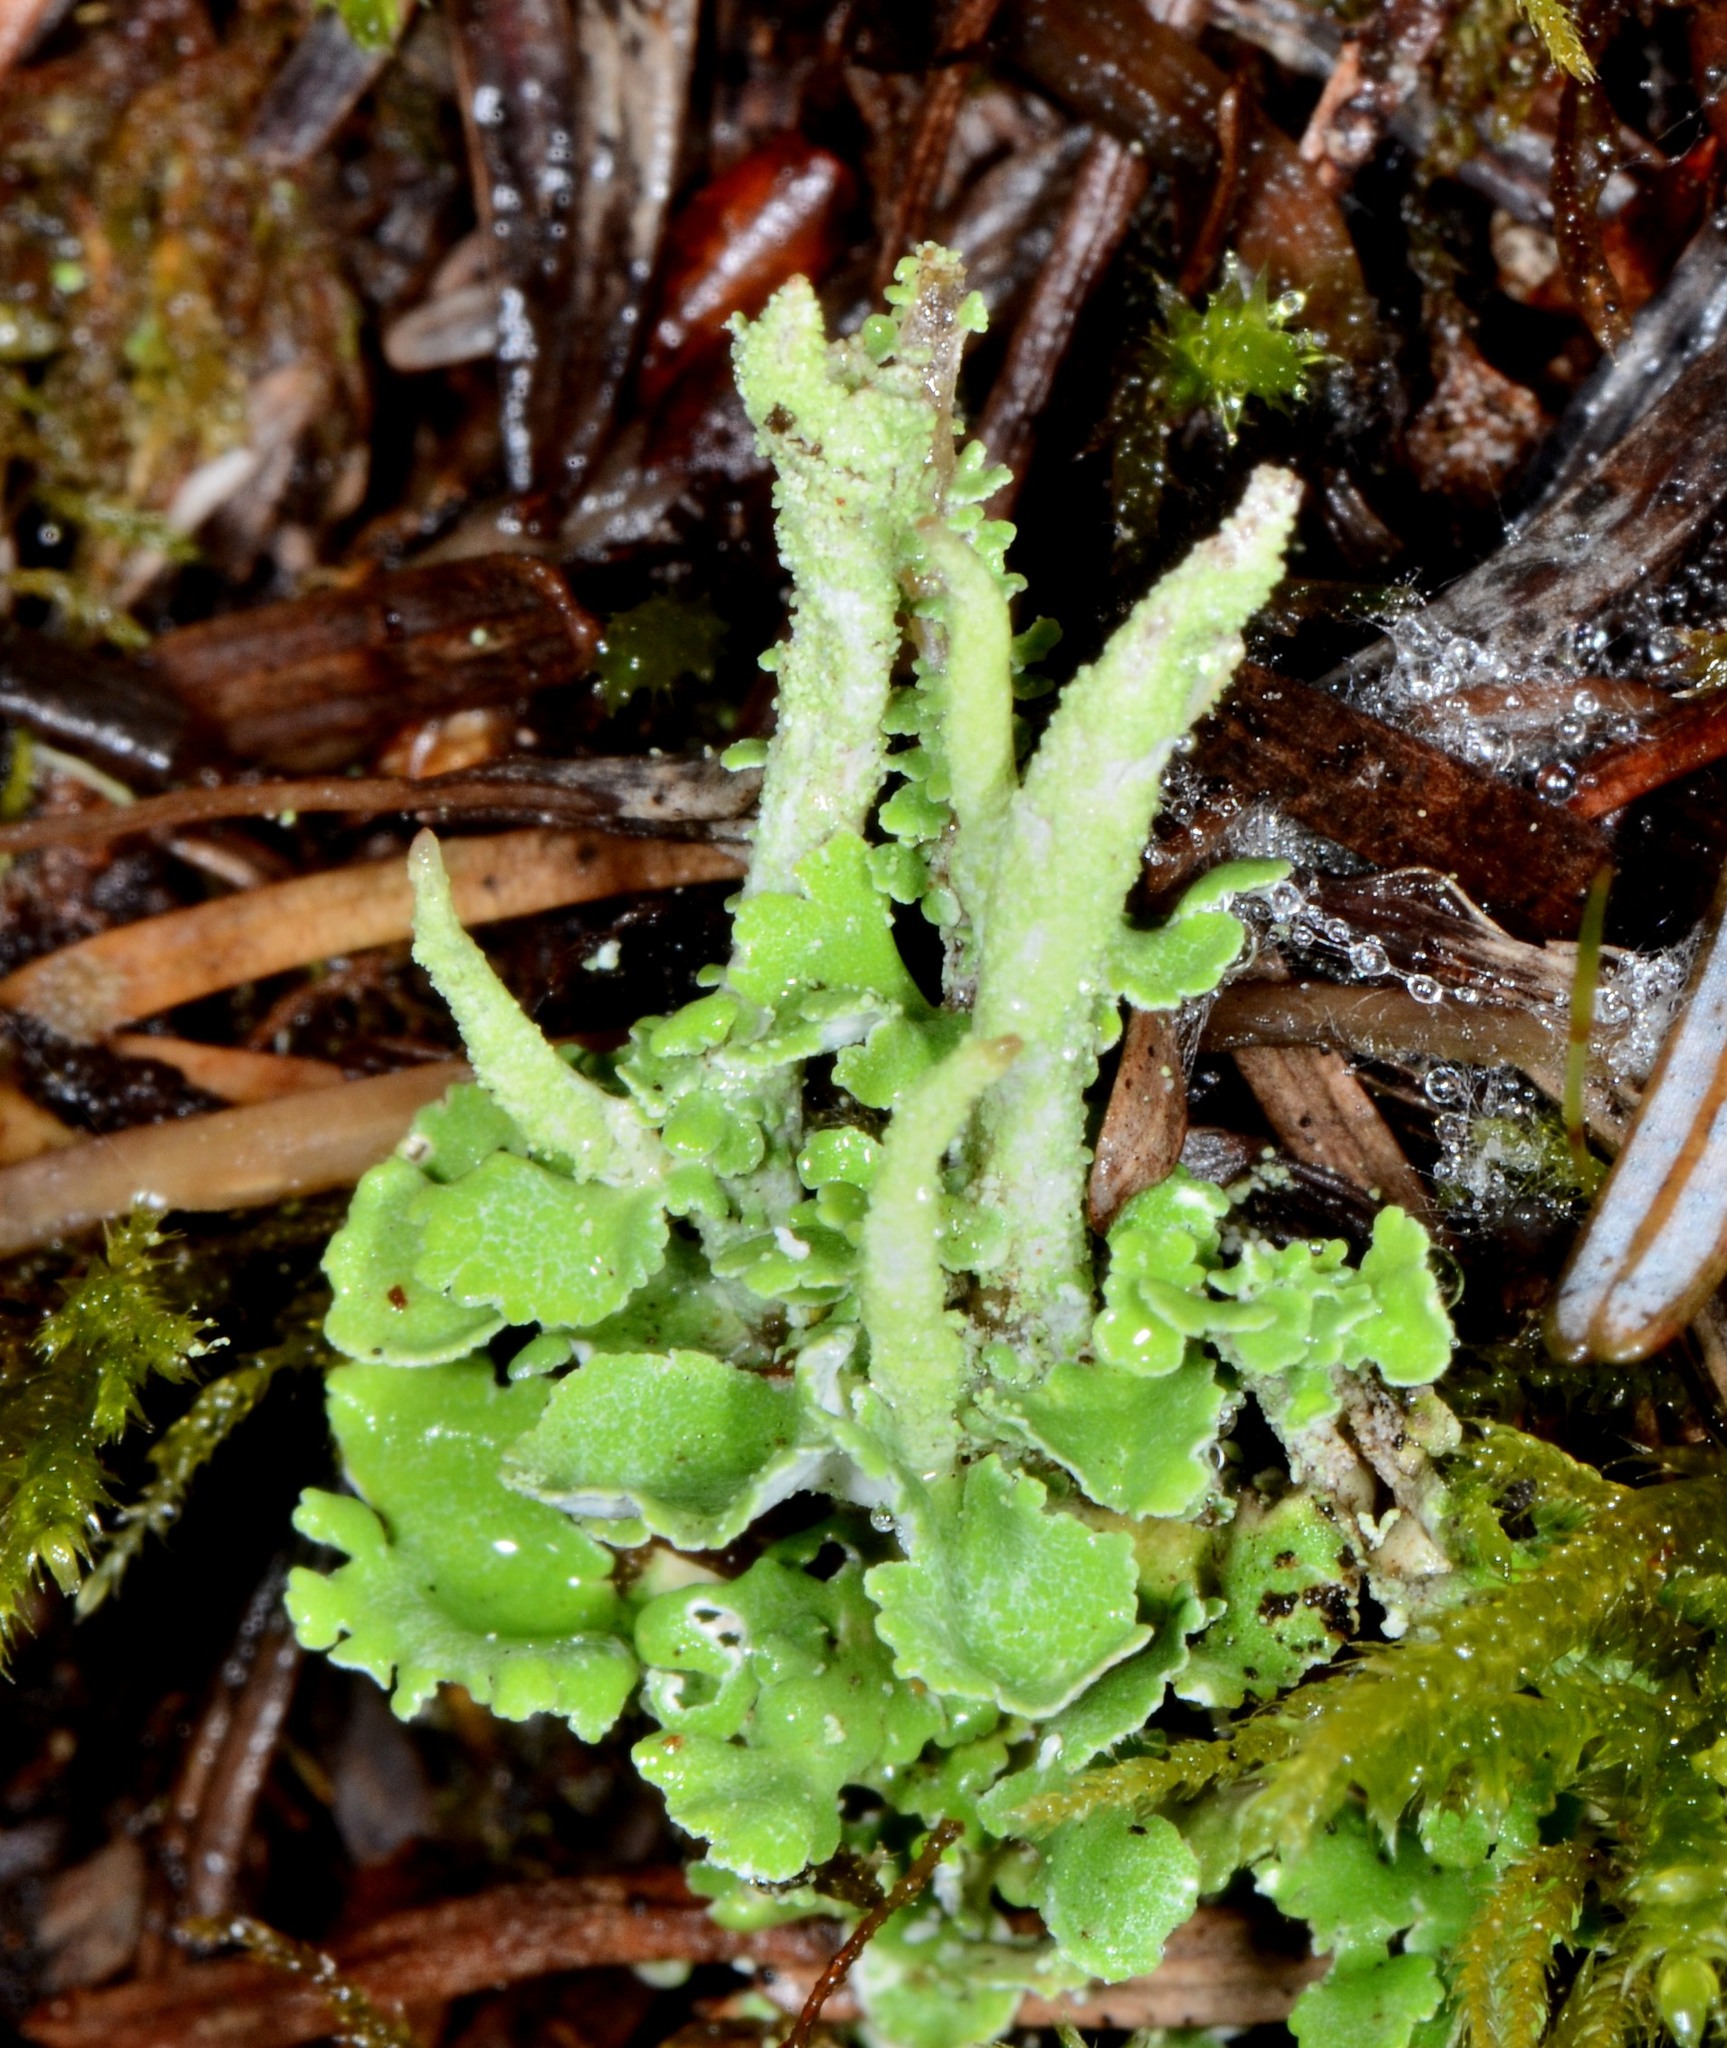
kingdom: Fungi
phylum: Ascomycota
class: Lecanoromycetes
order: Lecanorales
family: Cladoniaceae
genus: Cladonia
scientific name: Cladonia coniocraea
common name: Common powderhorn
